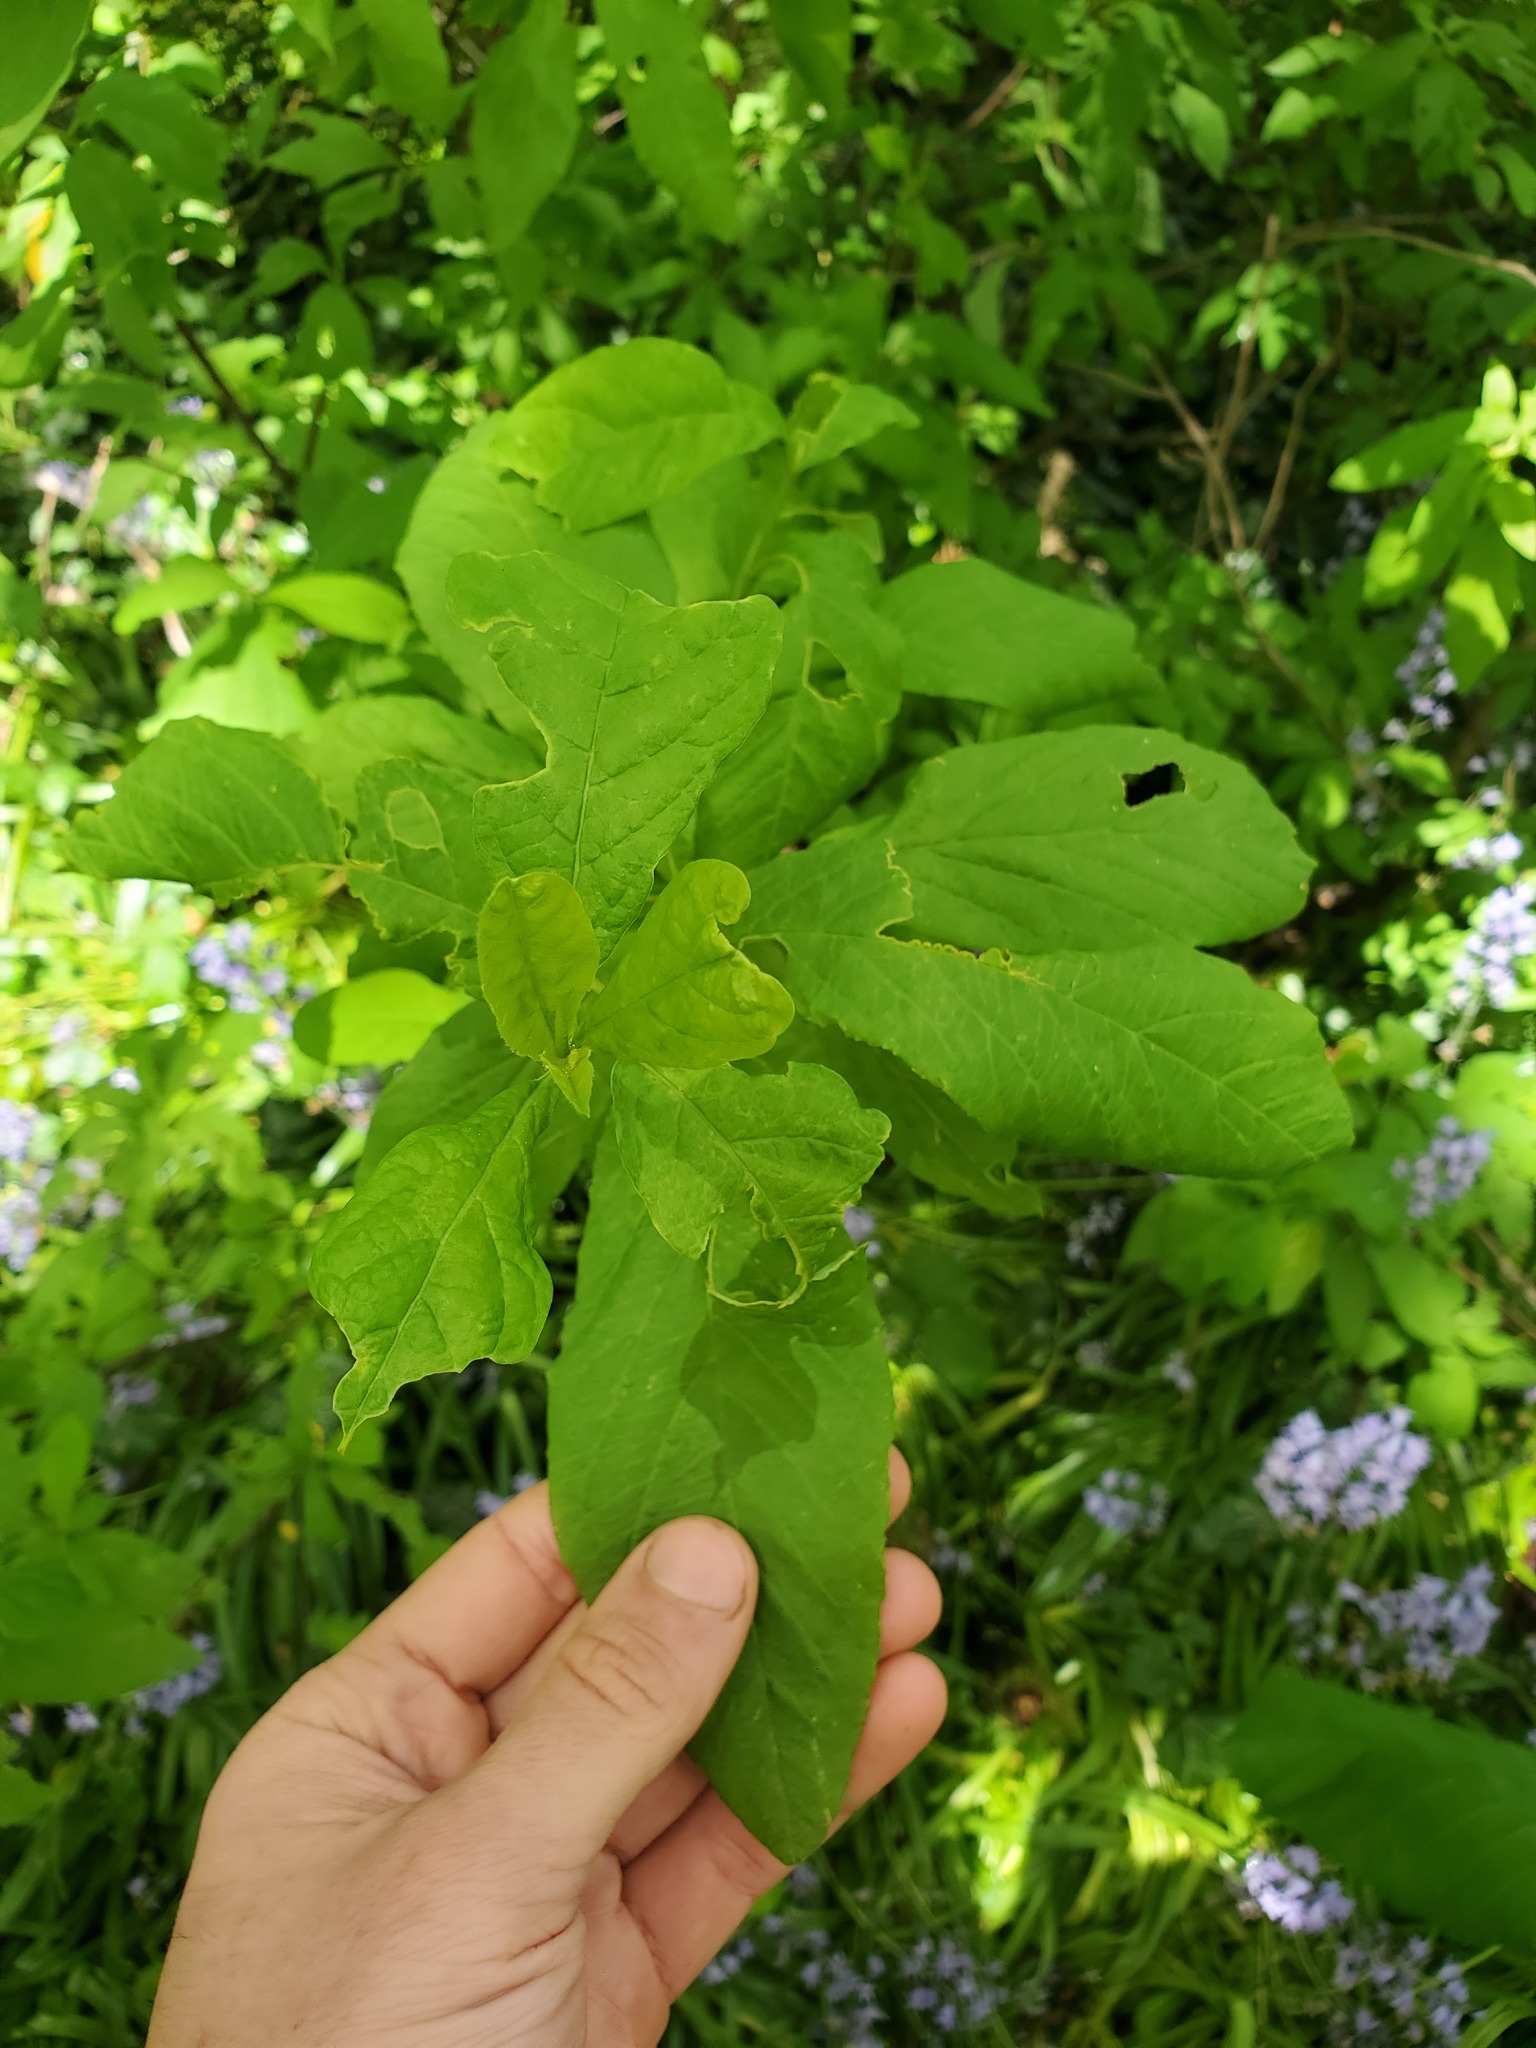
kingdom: Plantae
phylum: Tracheophyta
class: Magnoliopsida
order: Rosales
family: Rosaceae
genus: Oemleria
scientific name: Oemleria cerasiformis
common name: Osoberry
